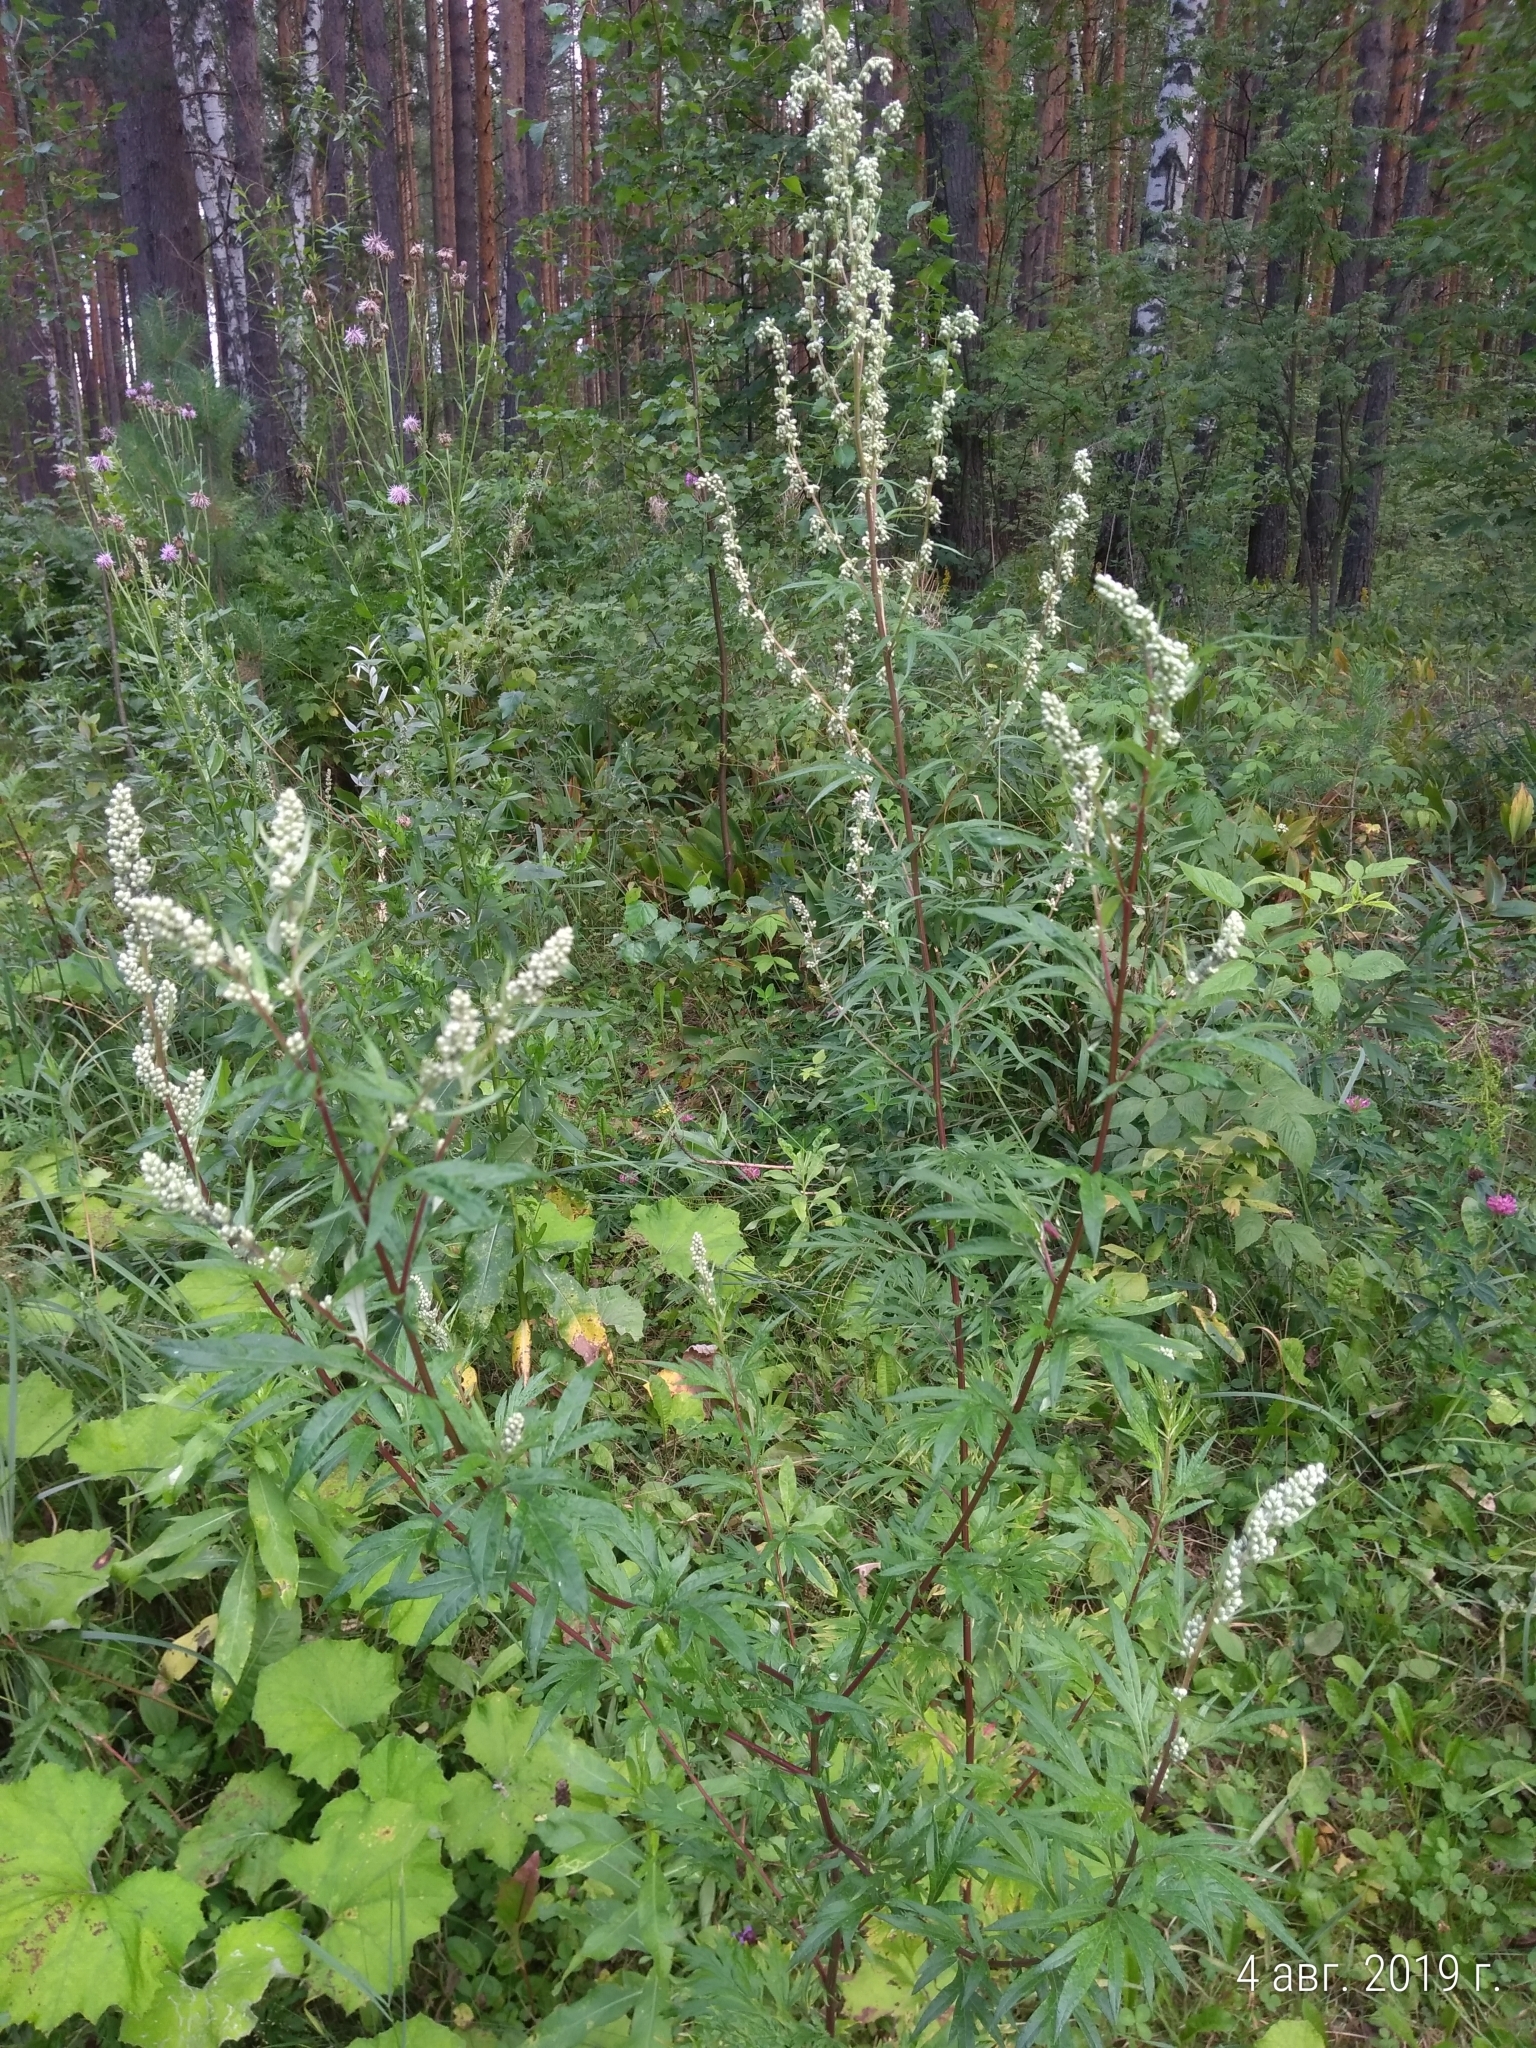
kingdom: Plantae
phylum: Tracheophyta
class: Magnoliopsida
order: Asterales
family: Asteraceae
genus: Artemisia
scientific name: Artemisia vulgaris
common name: Mugwort
